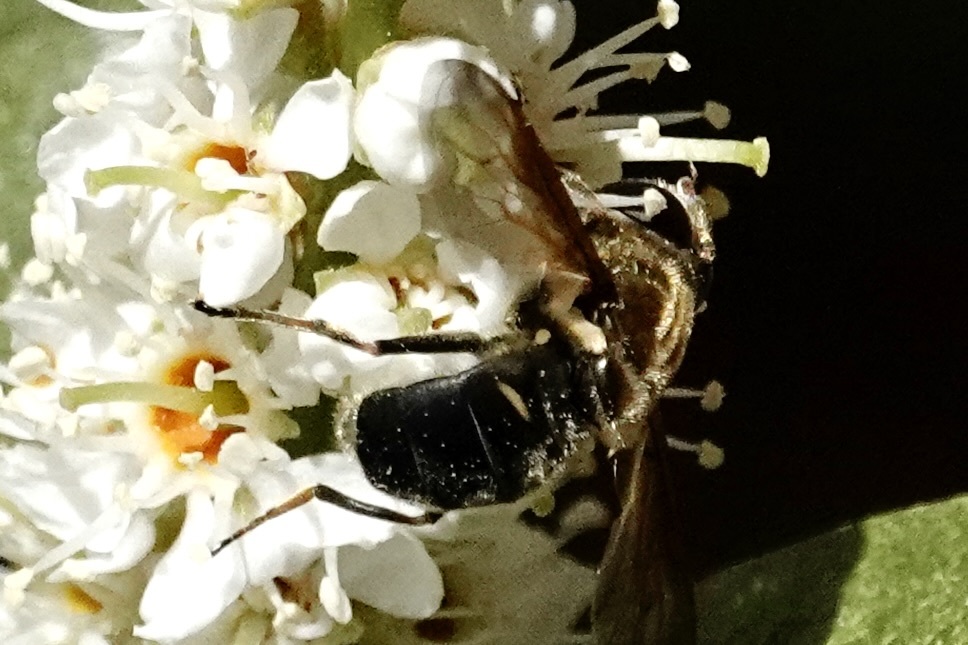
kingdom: Animalia
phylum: Arthropoda
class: Insecta
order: Diptera
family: Syrphidae
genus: Sericomyia
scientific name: Sericomyia carolinensis
